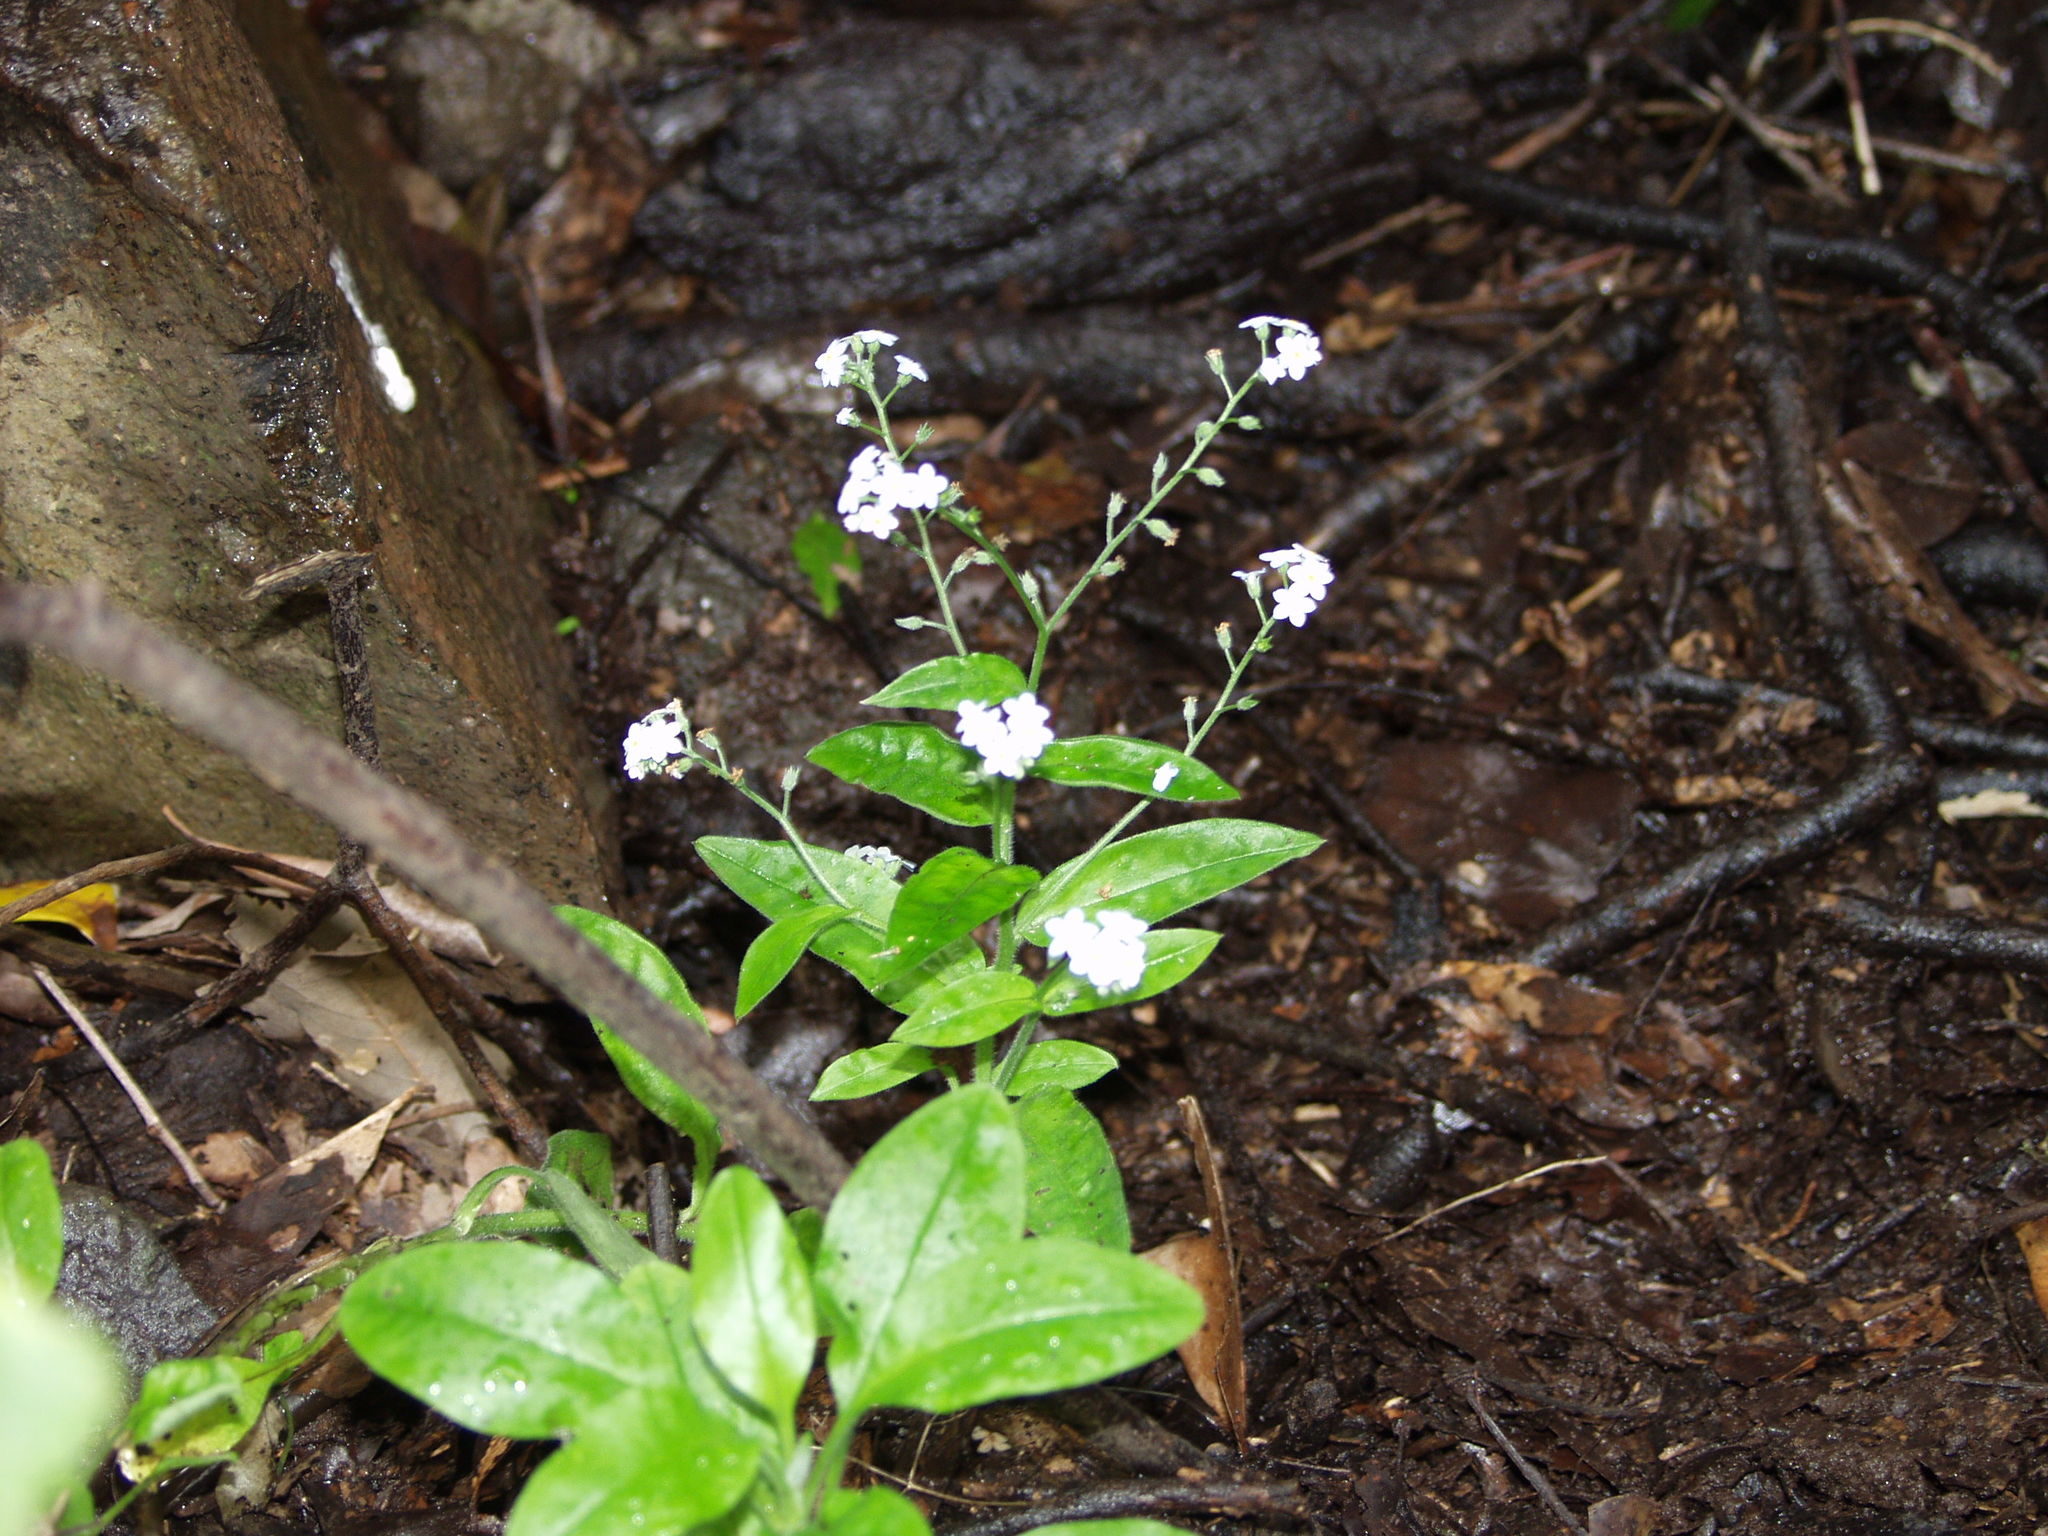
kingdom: Plantae
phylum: Tracheophyta
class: Magnoliopsida
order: Boraginales
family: Boraginaceae
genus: Myosotis
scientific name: Myosotis latifolia
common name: Broadleaf forget-me-not
